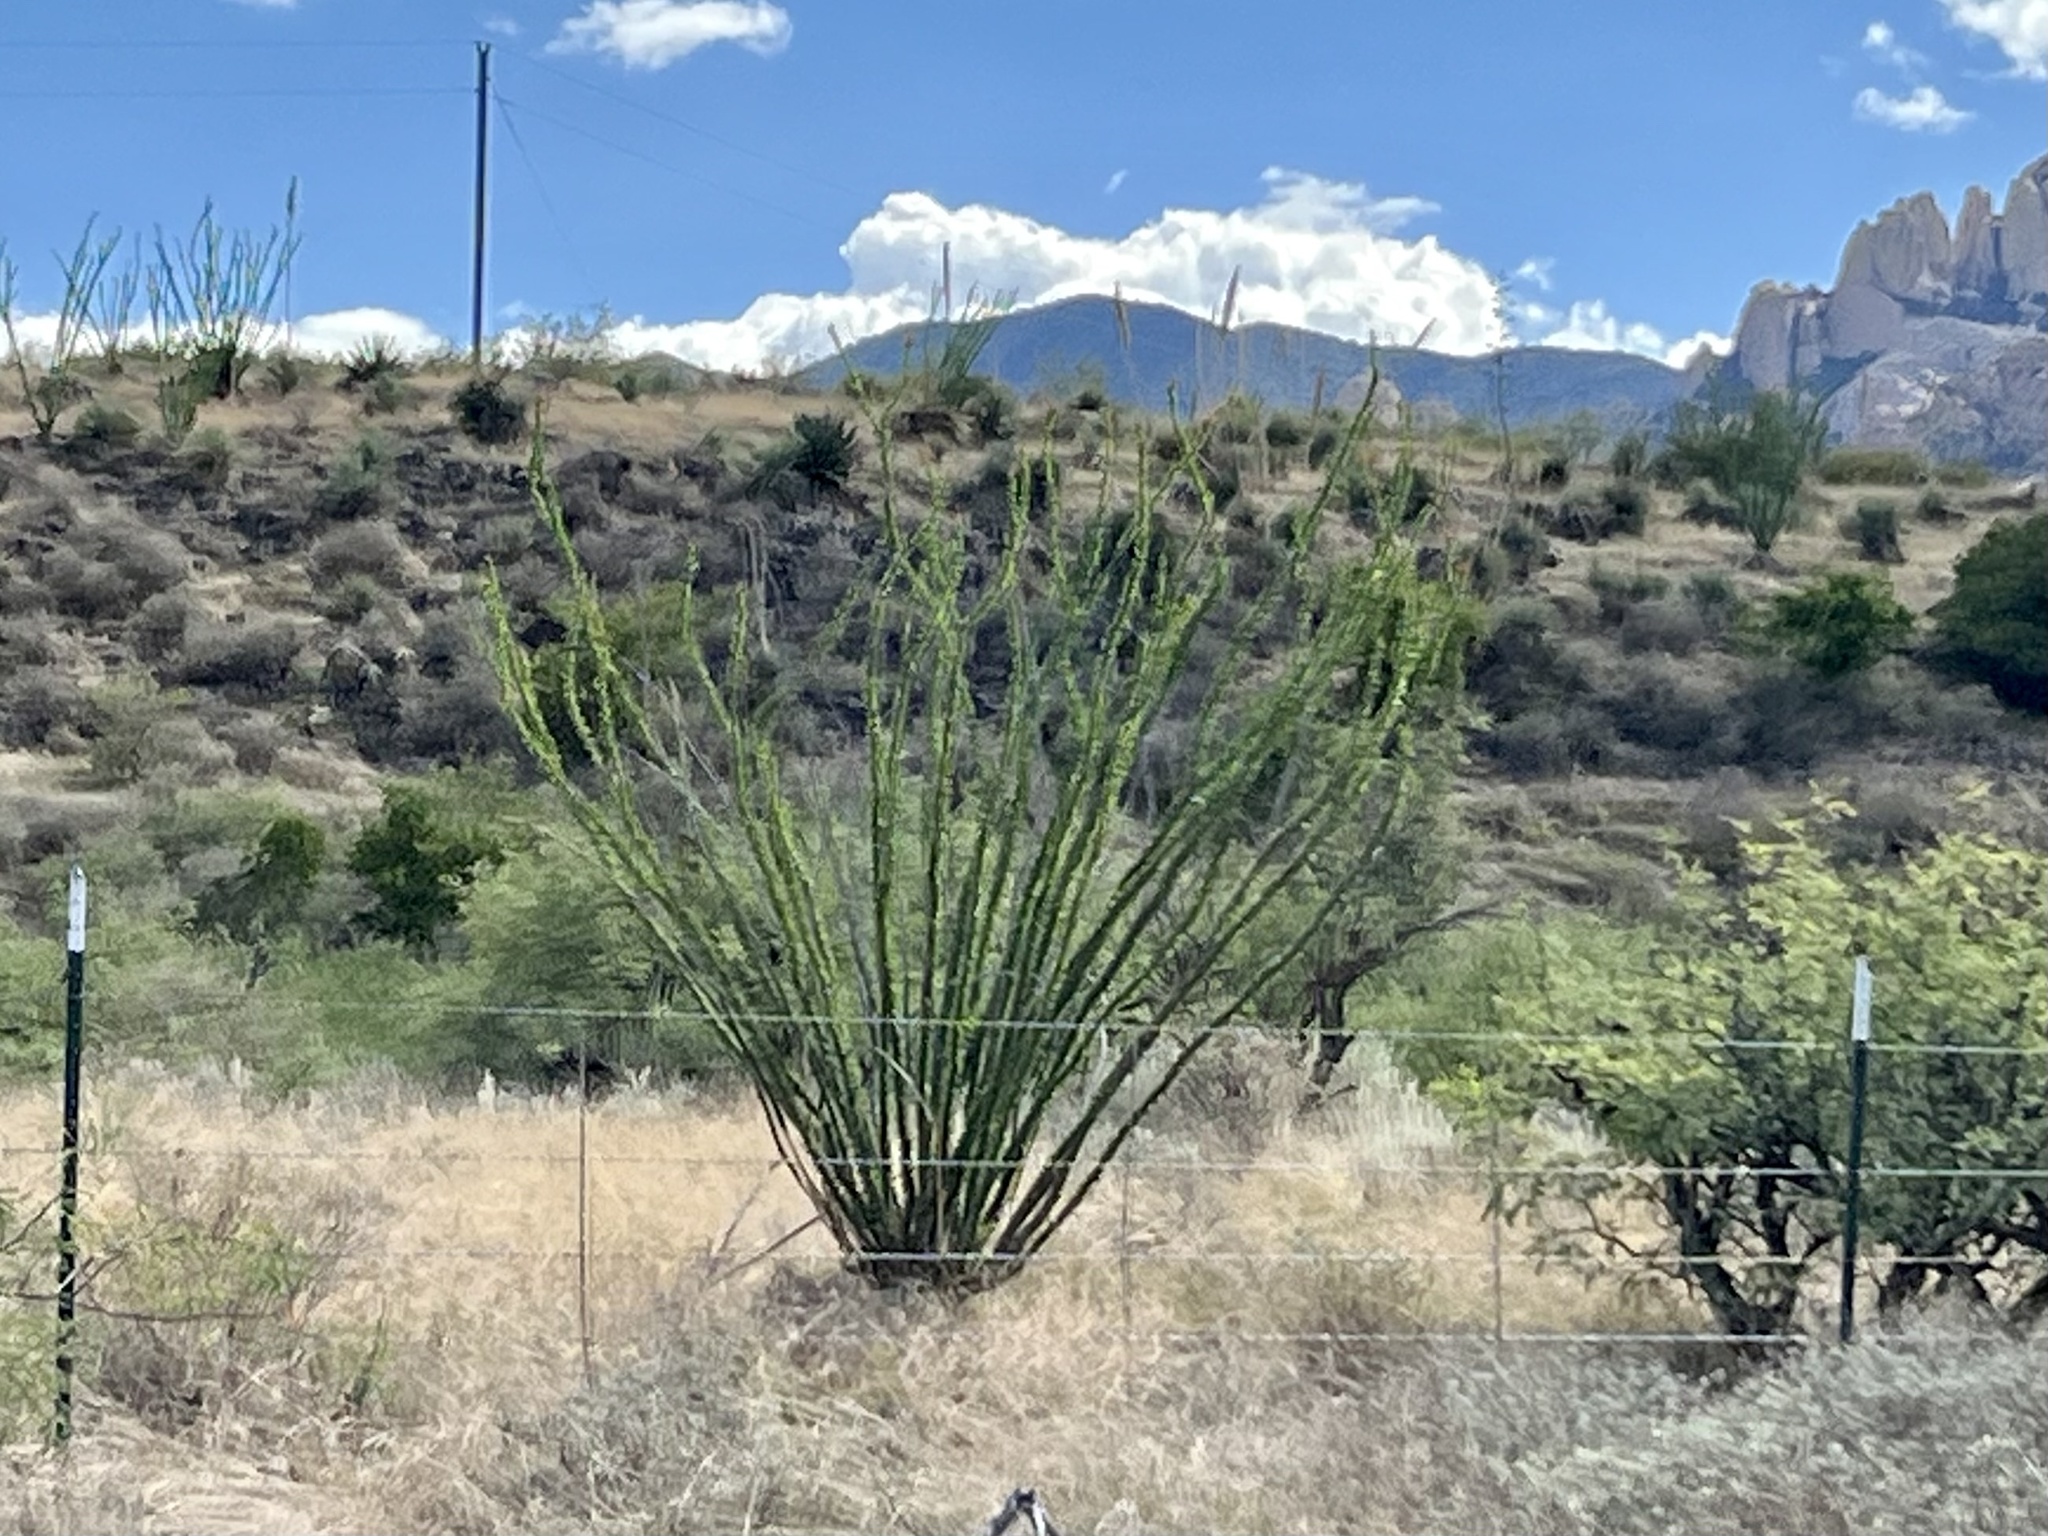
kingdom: Plantae
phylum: Tracheophyta
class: Magnoliopsida
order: Ericales
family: Fouquieriaceae
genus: Fouquieria
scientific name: Fouquieria splendens
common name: Vine-cactus
